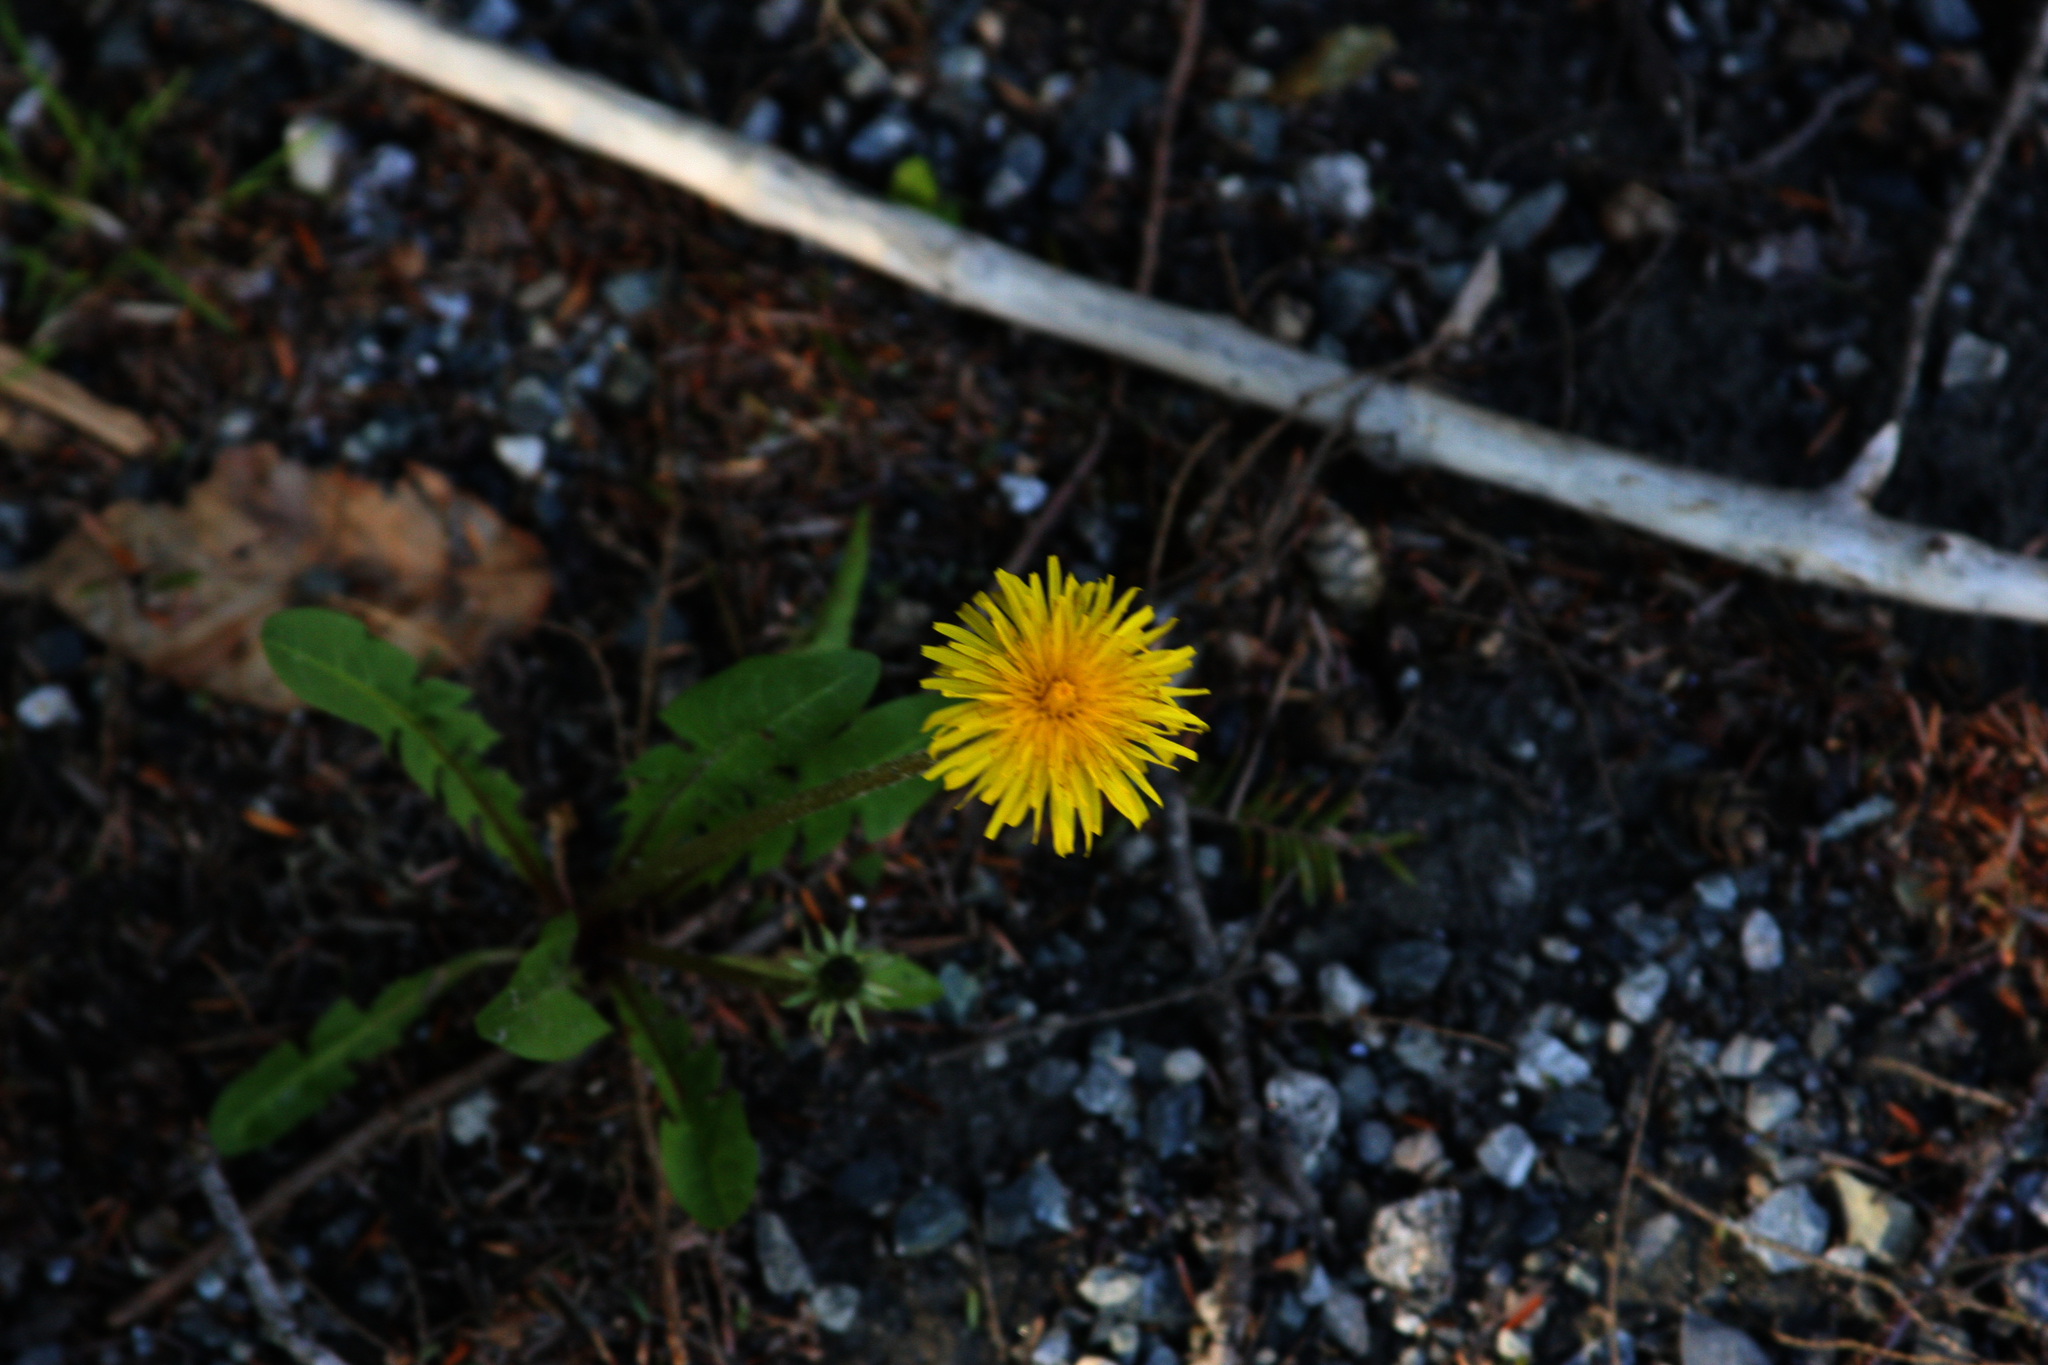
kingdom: Plantae
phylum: Tracheophyta
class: Magnoliopsida
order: Asterales
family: Asteraceae
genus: Taraxacum
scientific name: Taraxacum officinale
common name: Common dandelion
